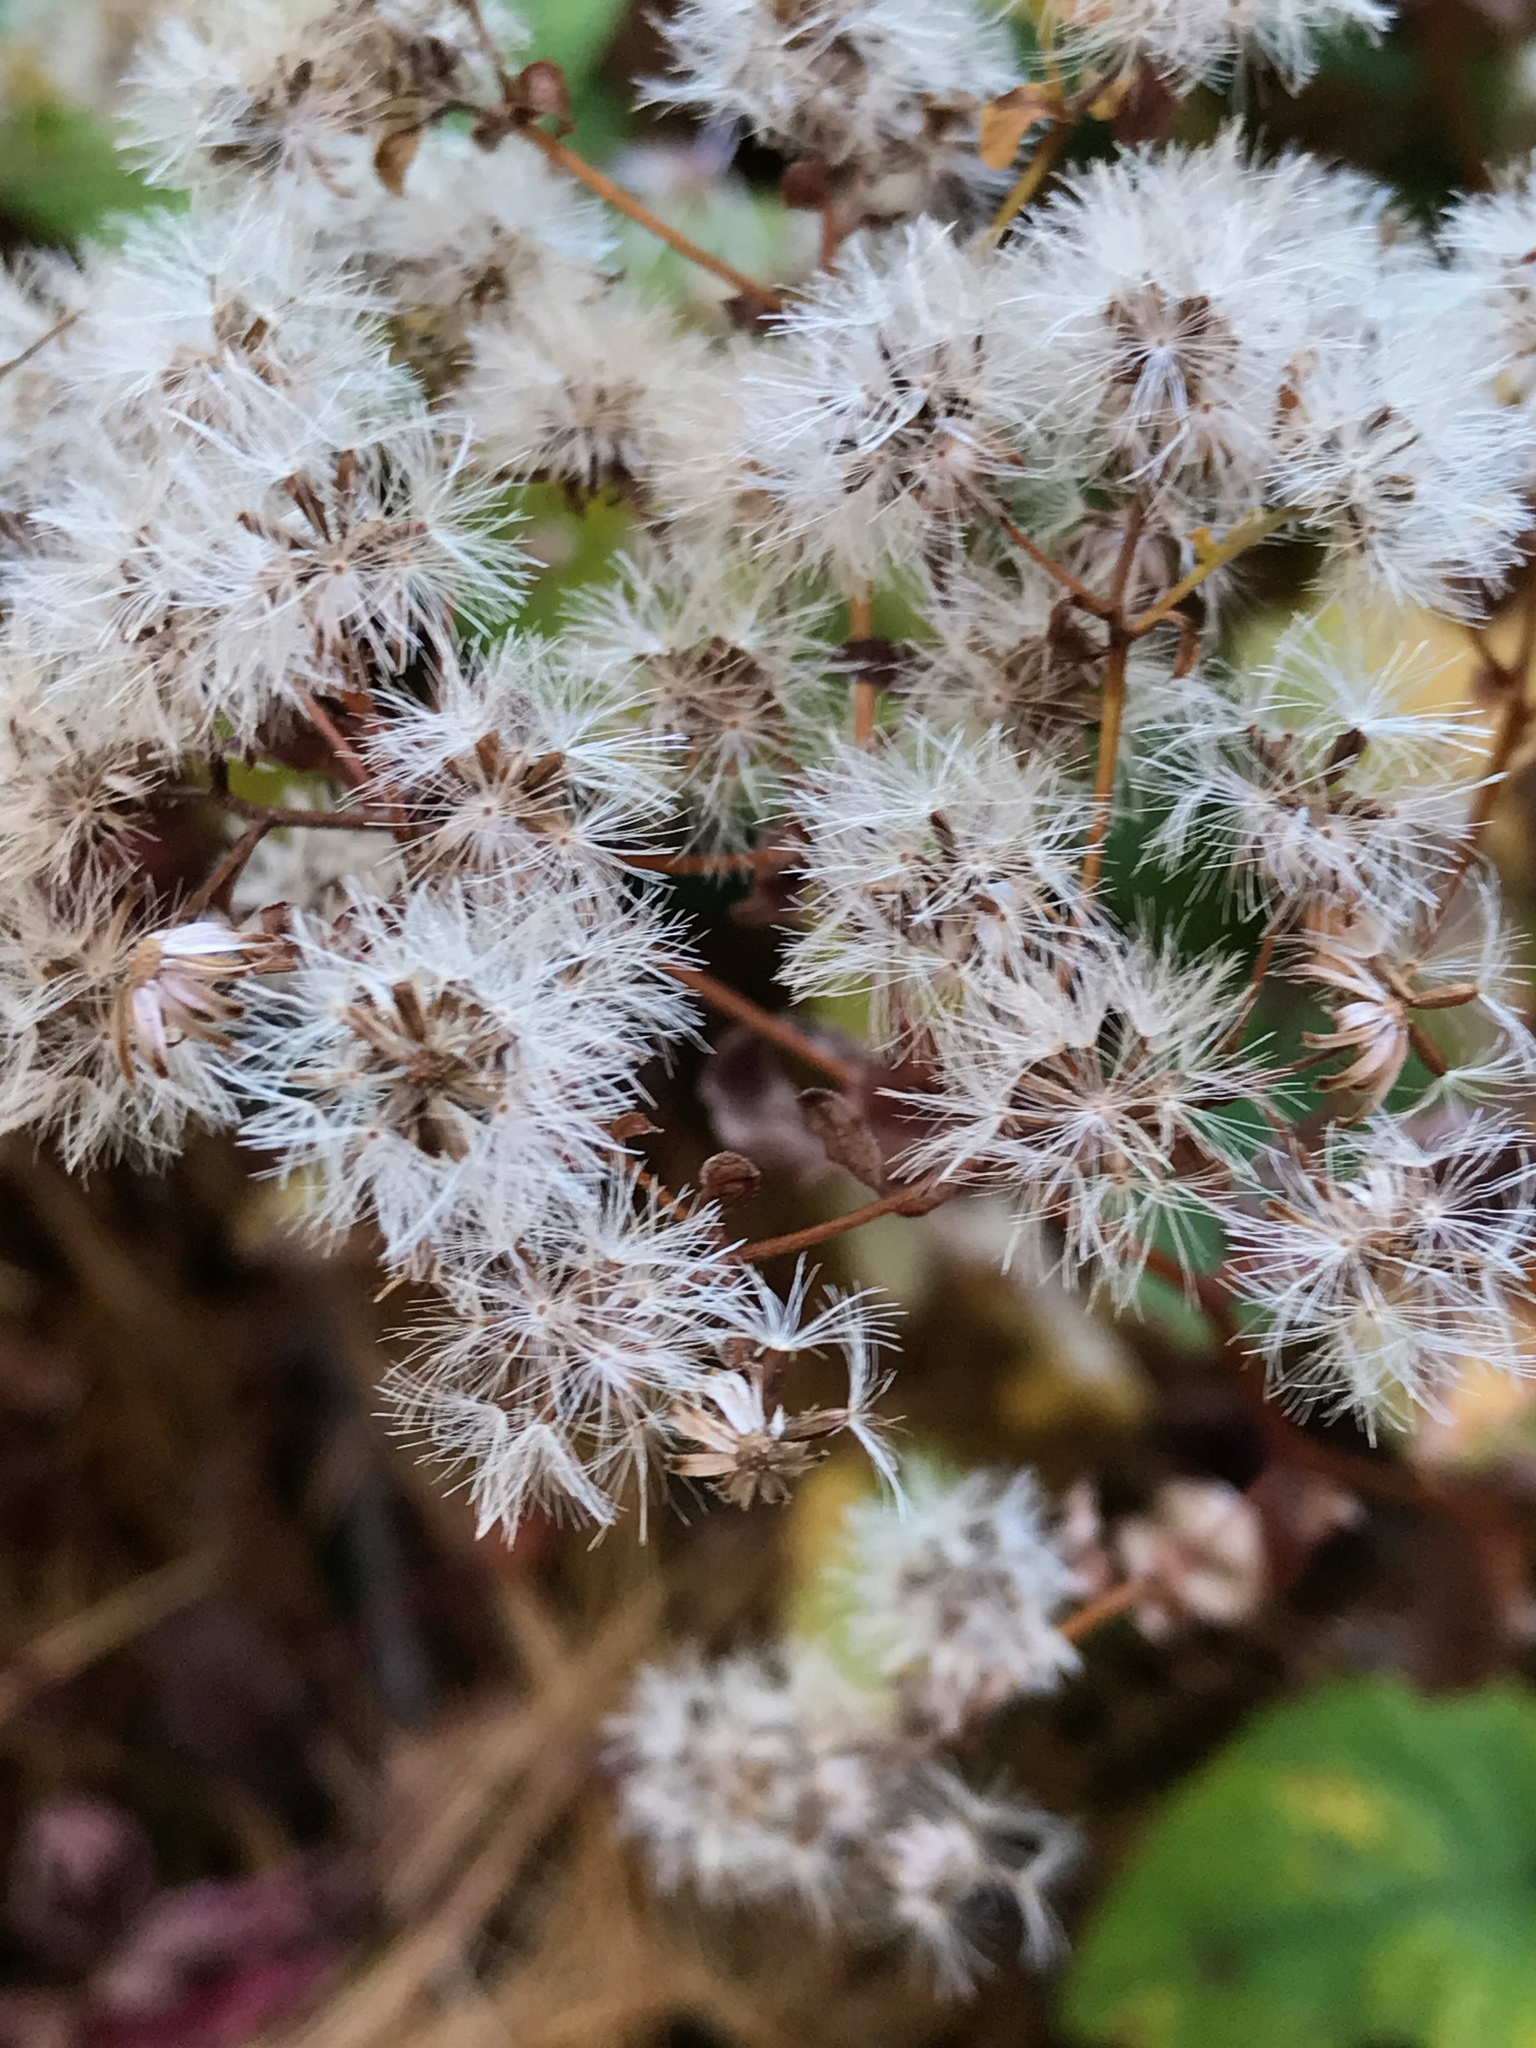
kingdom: Plantae
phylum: Tracheophyta
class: Magnoliopsida
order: Asterales
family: Asteraceae
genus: Eurybia
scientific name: Eurybia divaricata
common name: White wood aster
